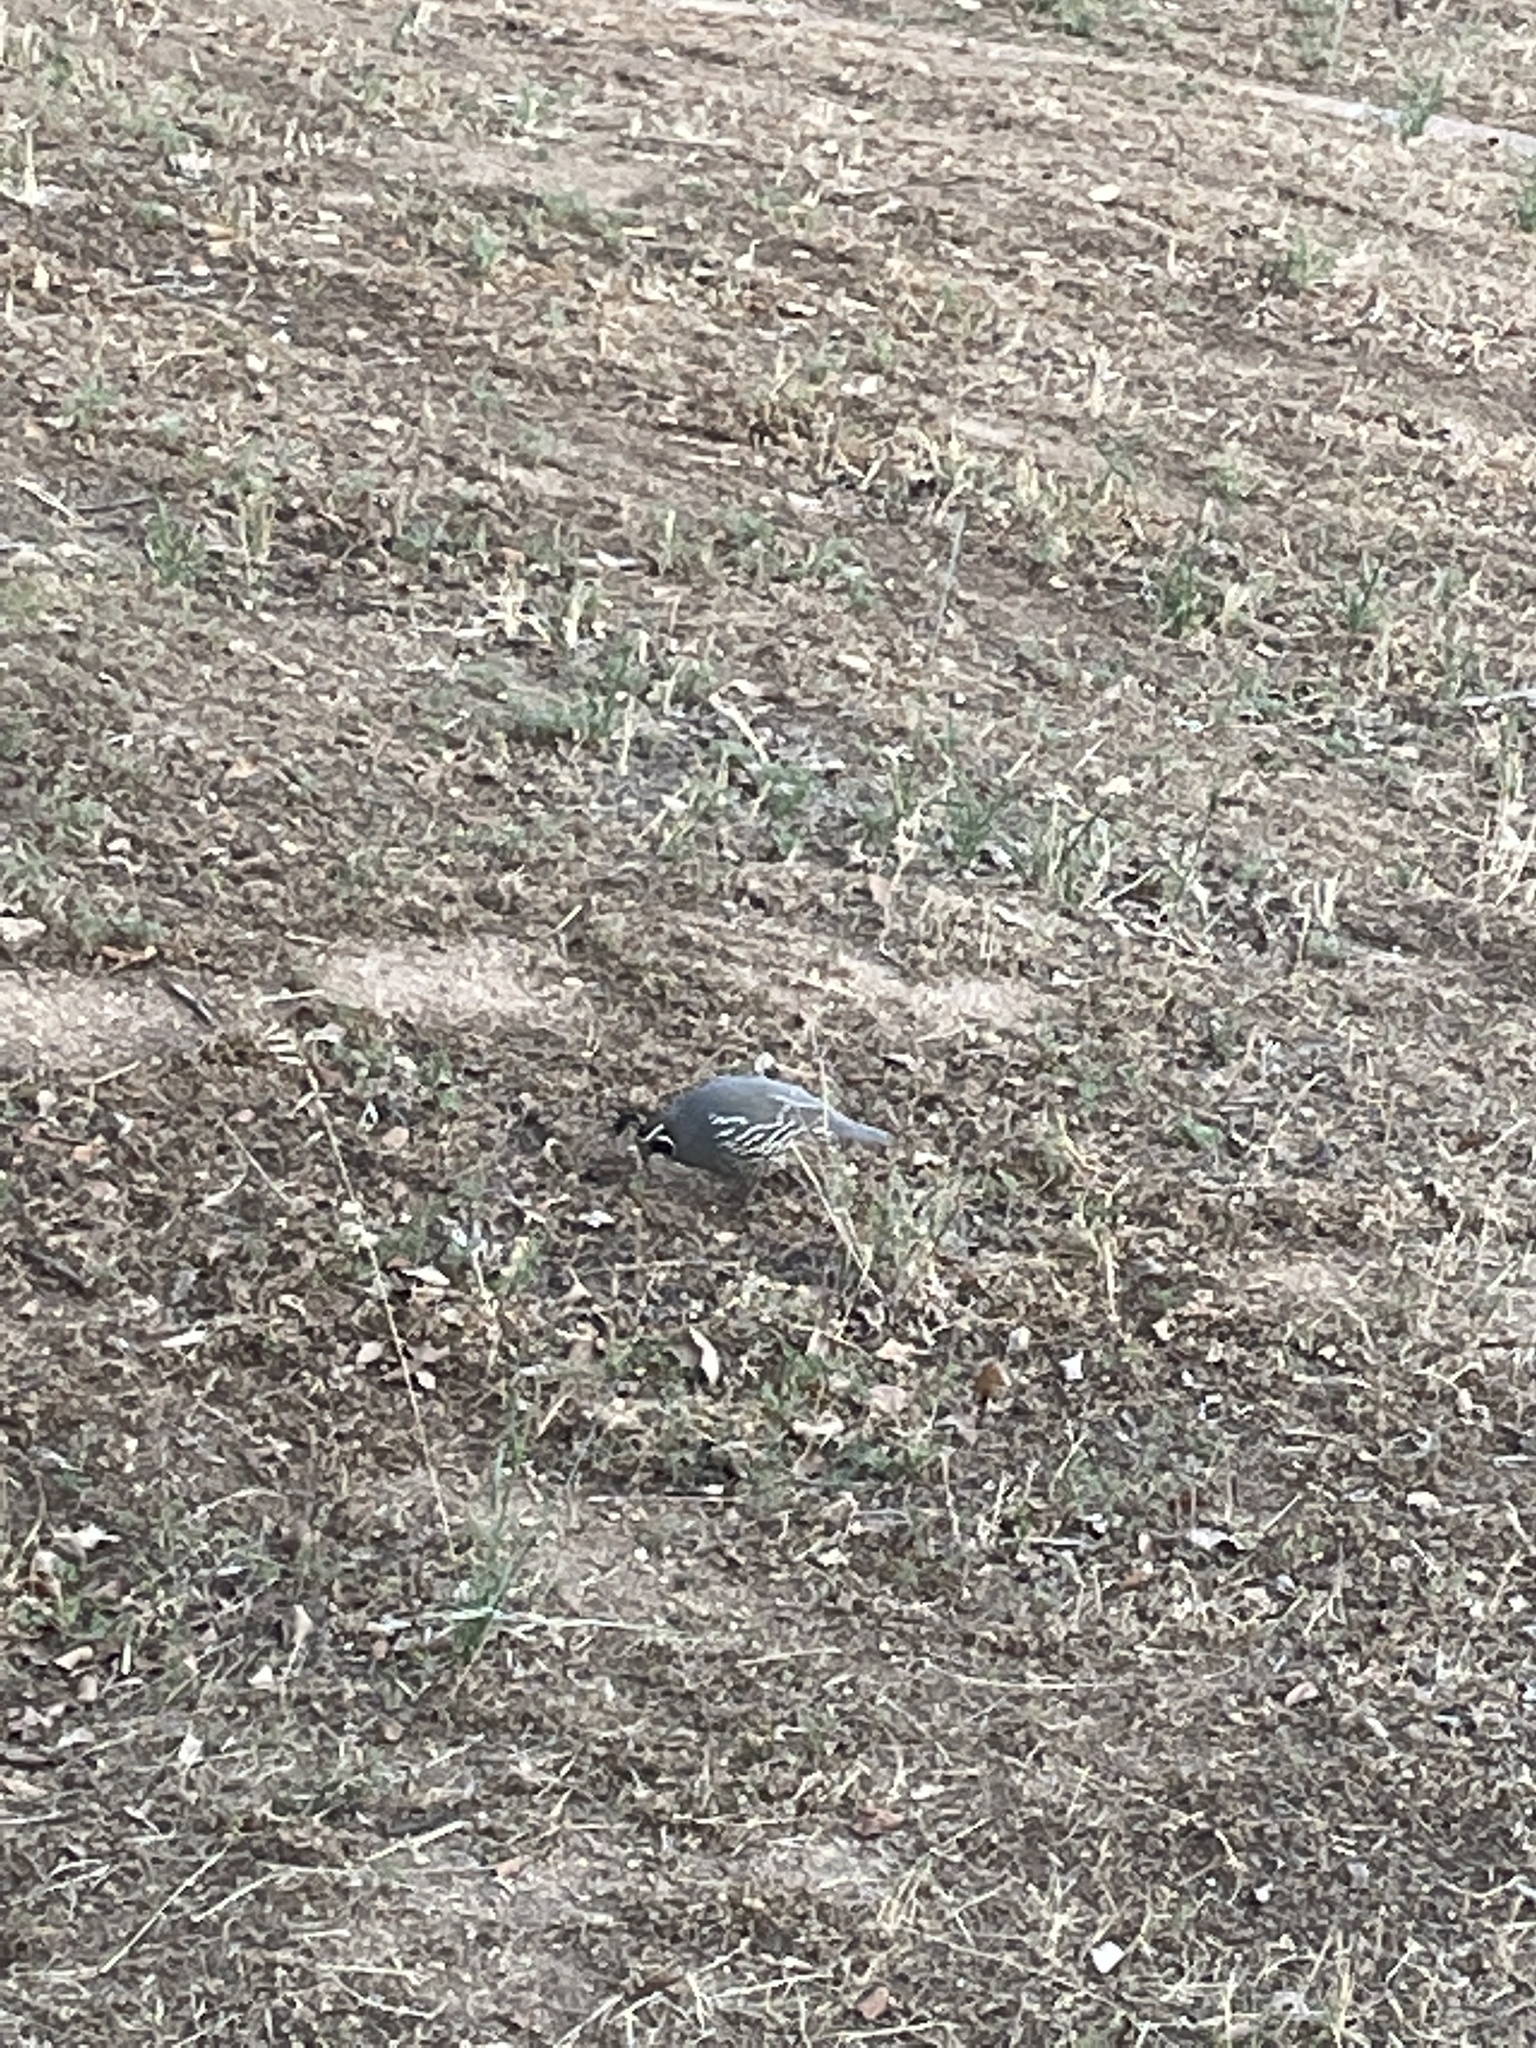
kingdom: Animalia
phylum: Chordata
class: Aves
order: Galliformes
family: Odontophoridae
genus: Callipepla
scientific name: Callipepla californica
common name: California quail
